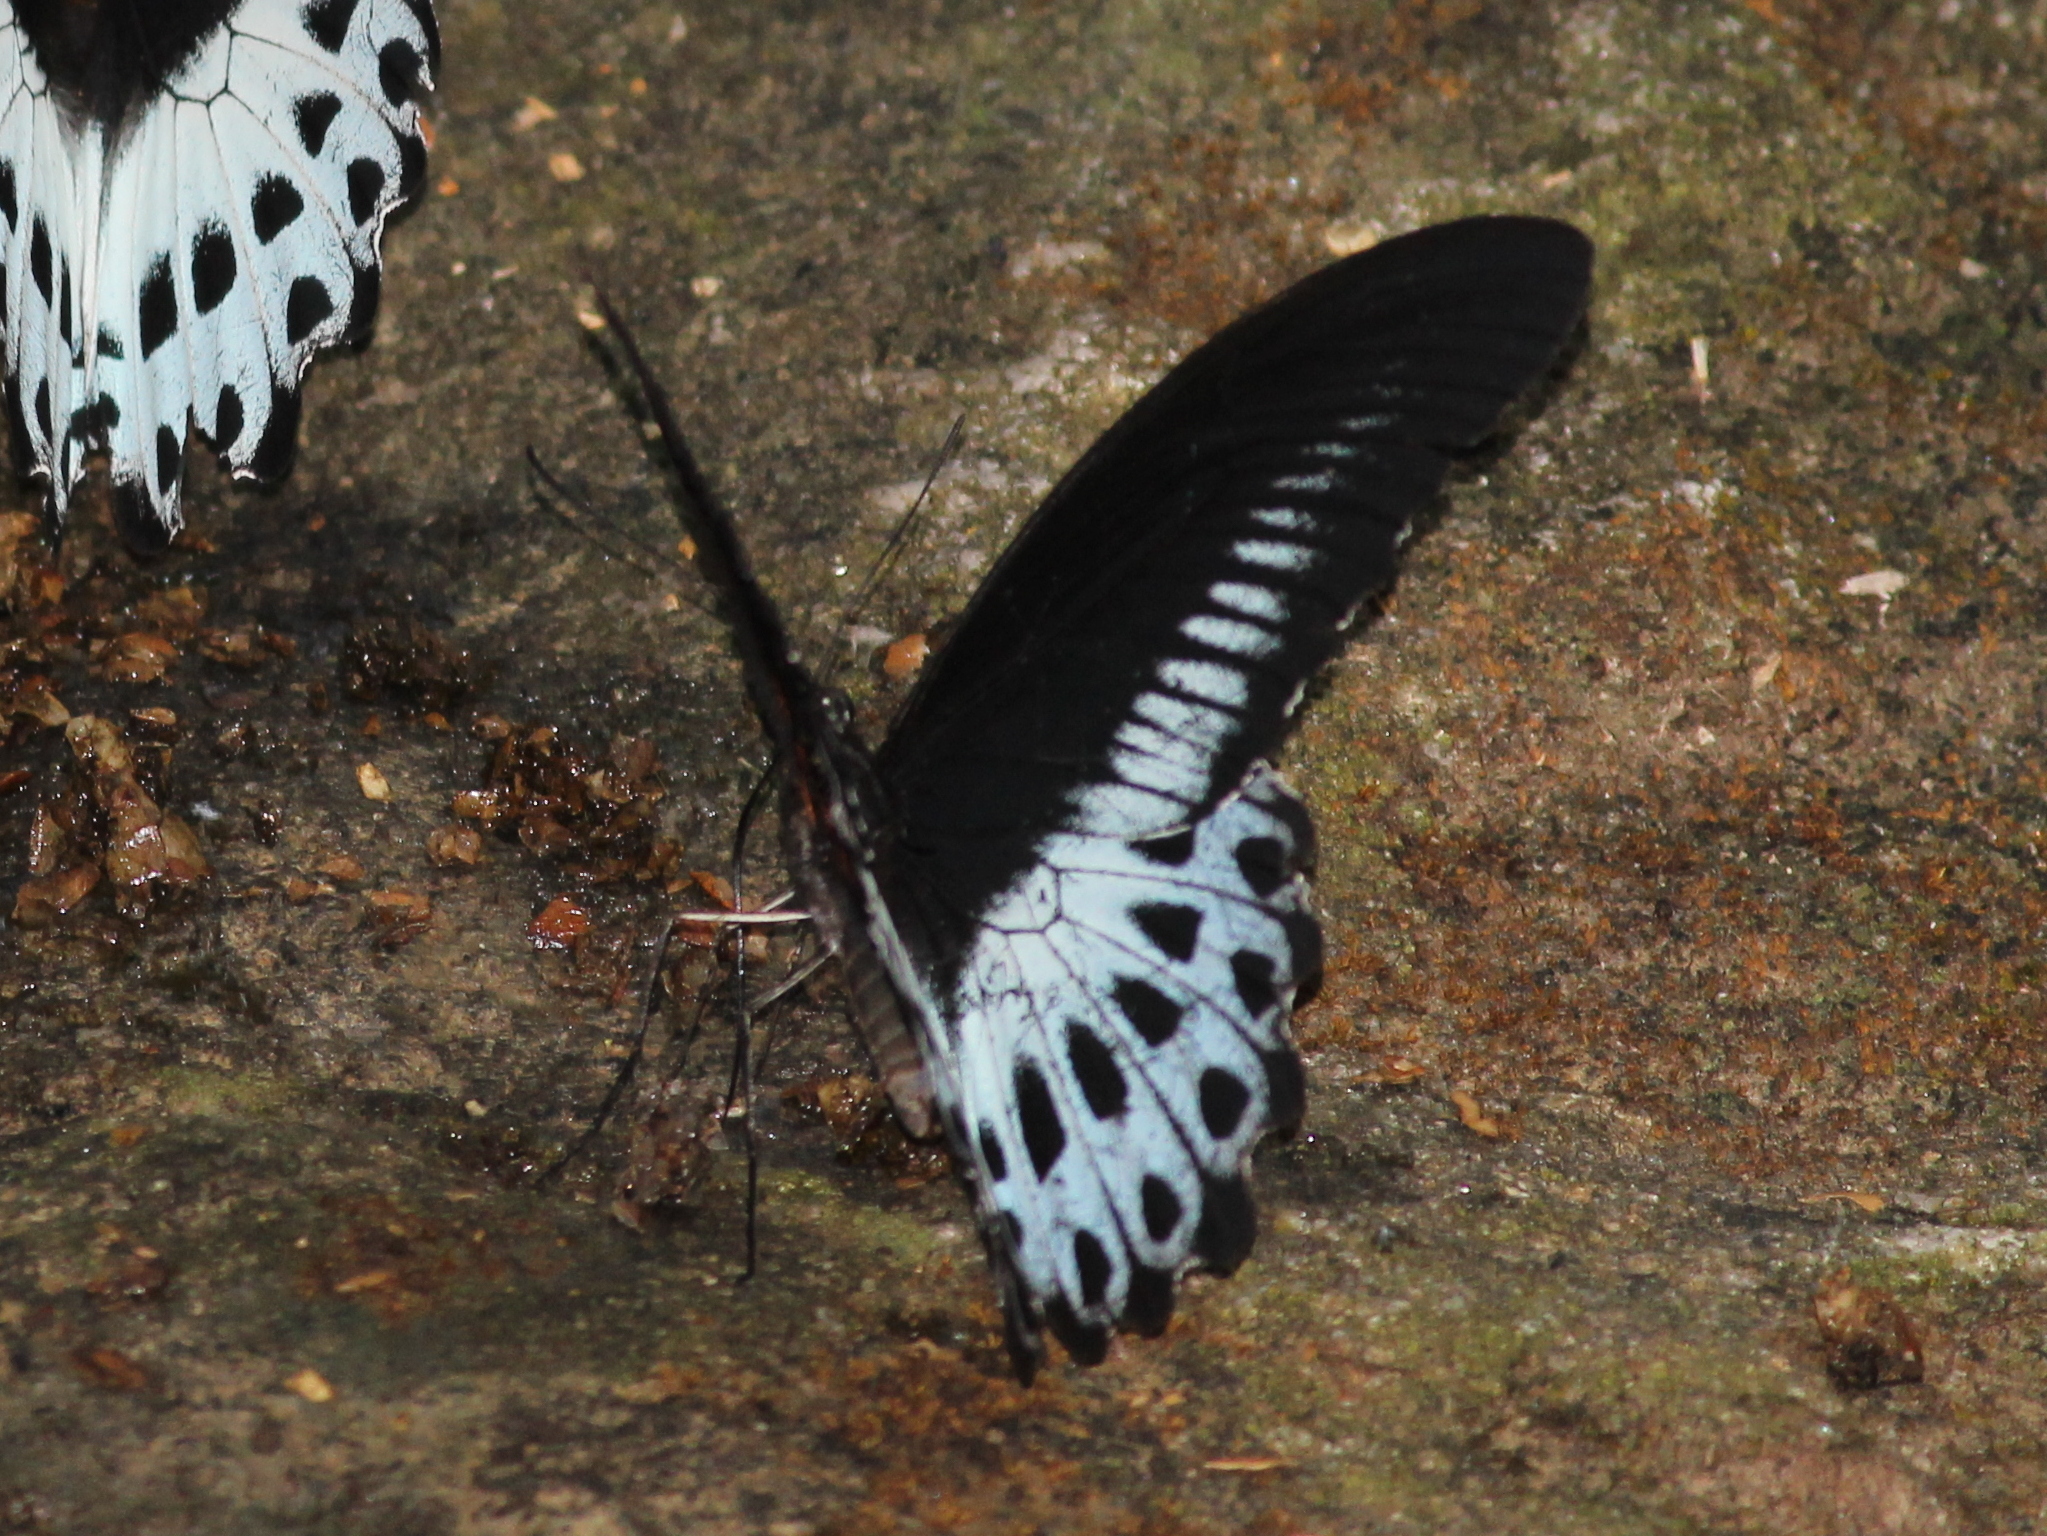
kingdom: Animalia
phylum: Arthropoda
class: Insecta
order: Lepidoptera
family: Papilionidae
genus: Papilio
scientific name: Papilio memnon
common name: Great mormon
